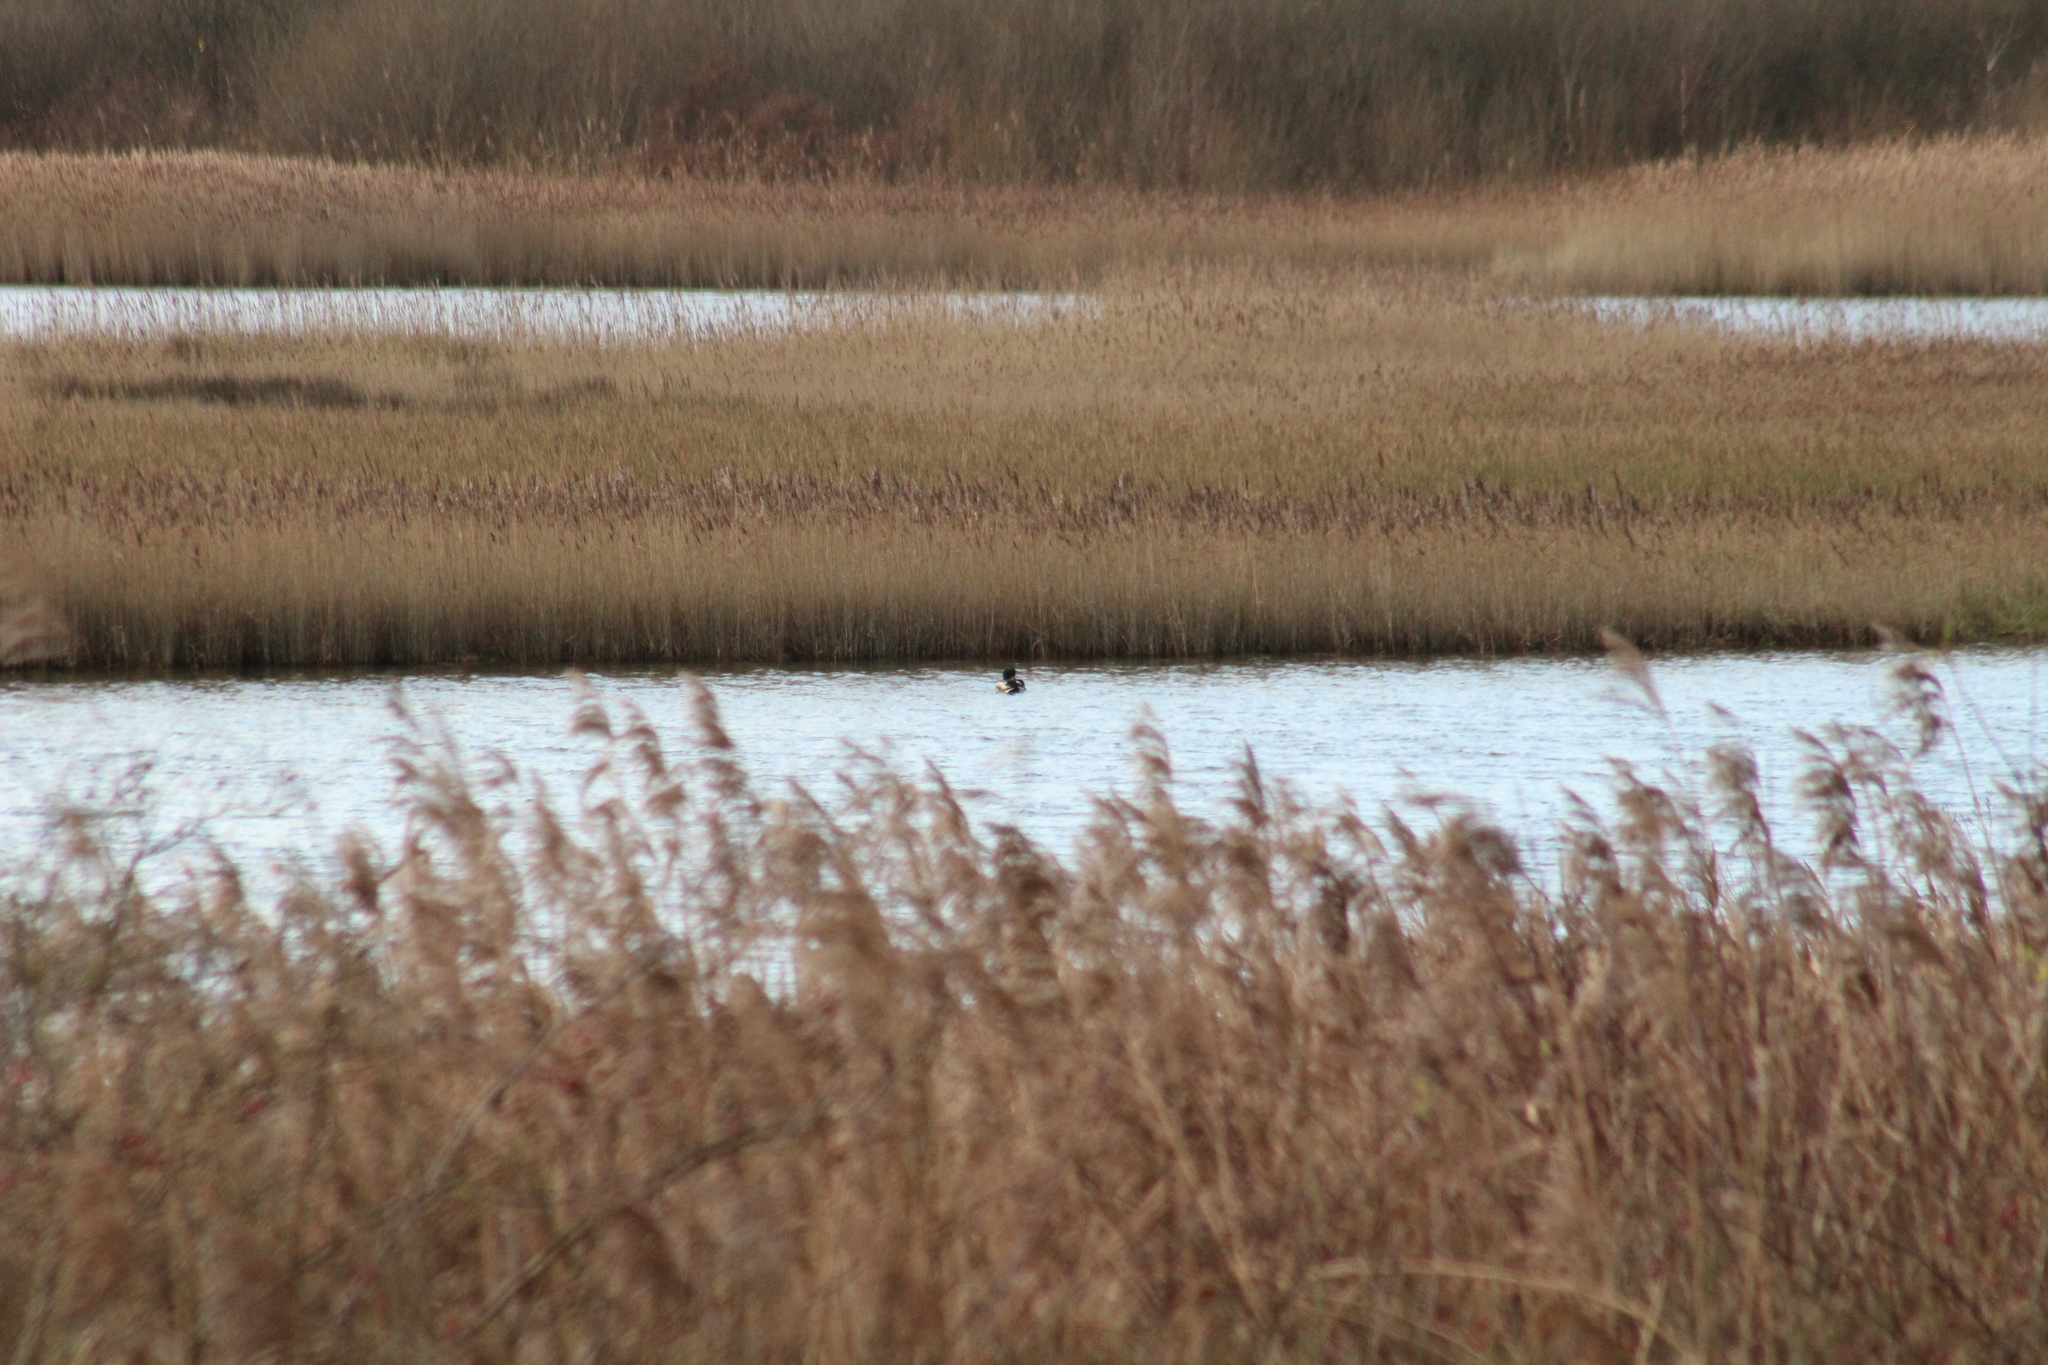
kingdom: Animalia
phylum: Chordata
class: Aves
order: Anseriformes
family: Anatidae
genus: Anas
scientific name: Anas platyrhynchos
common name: Mallard
